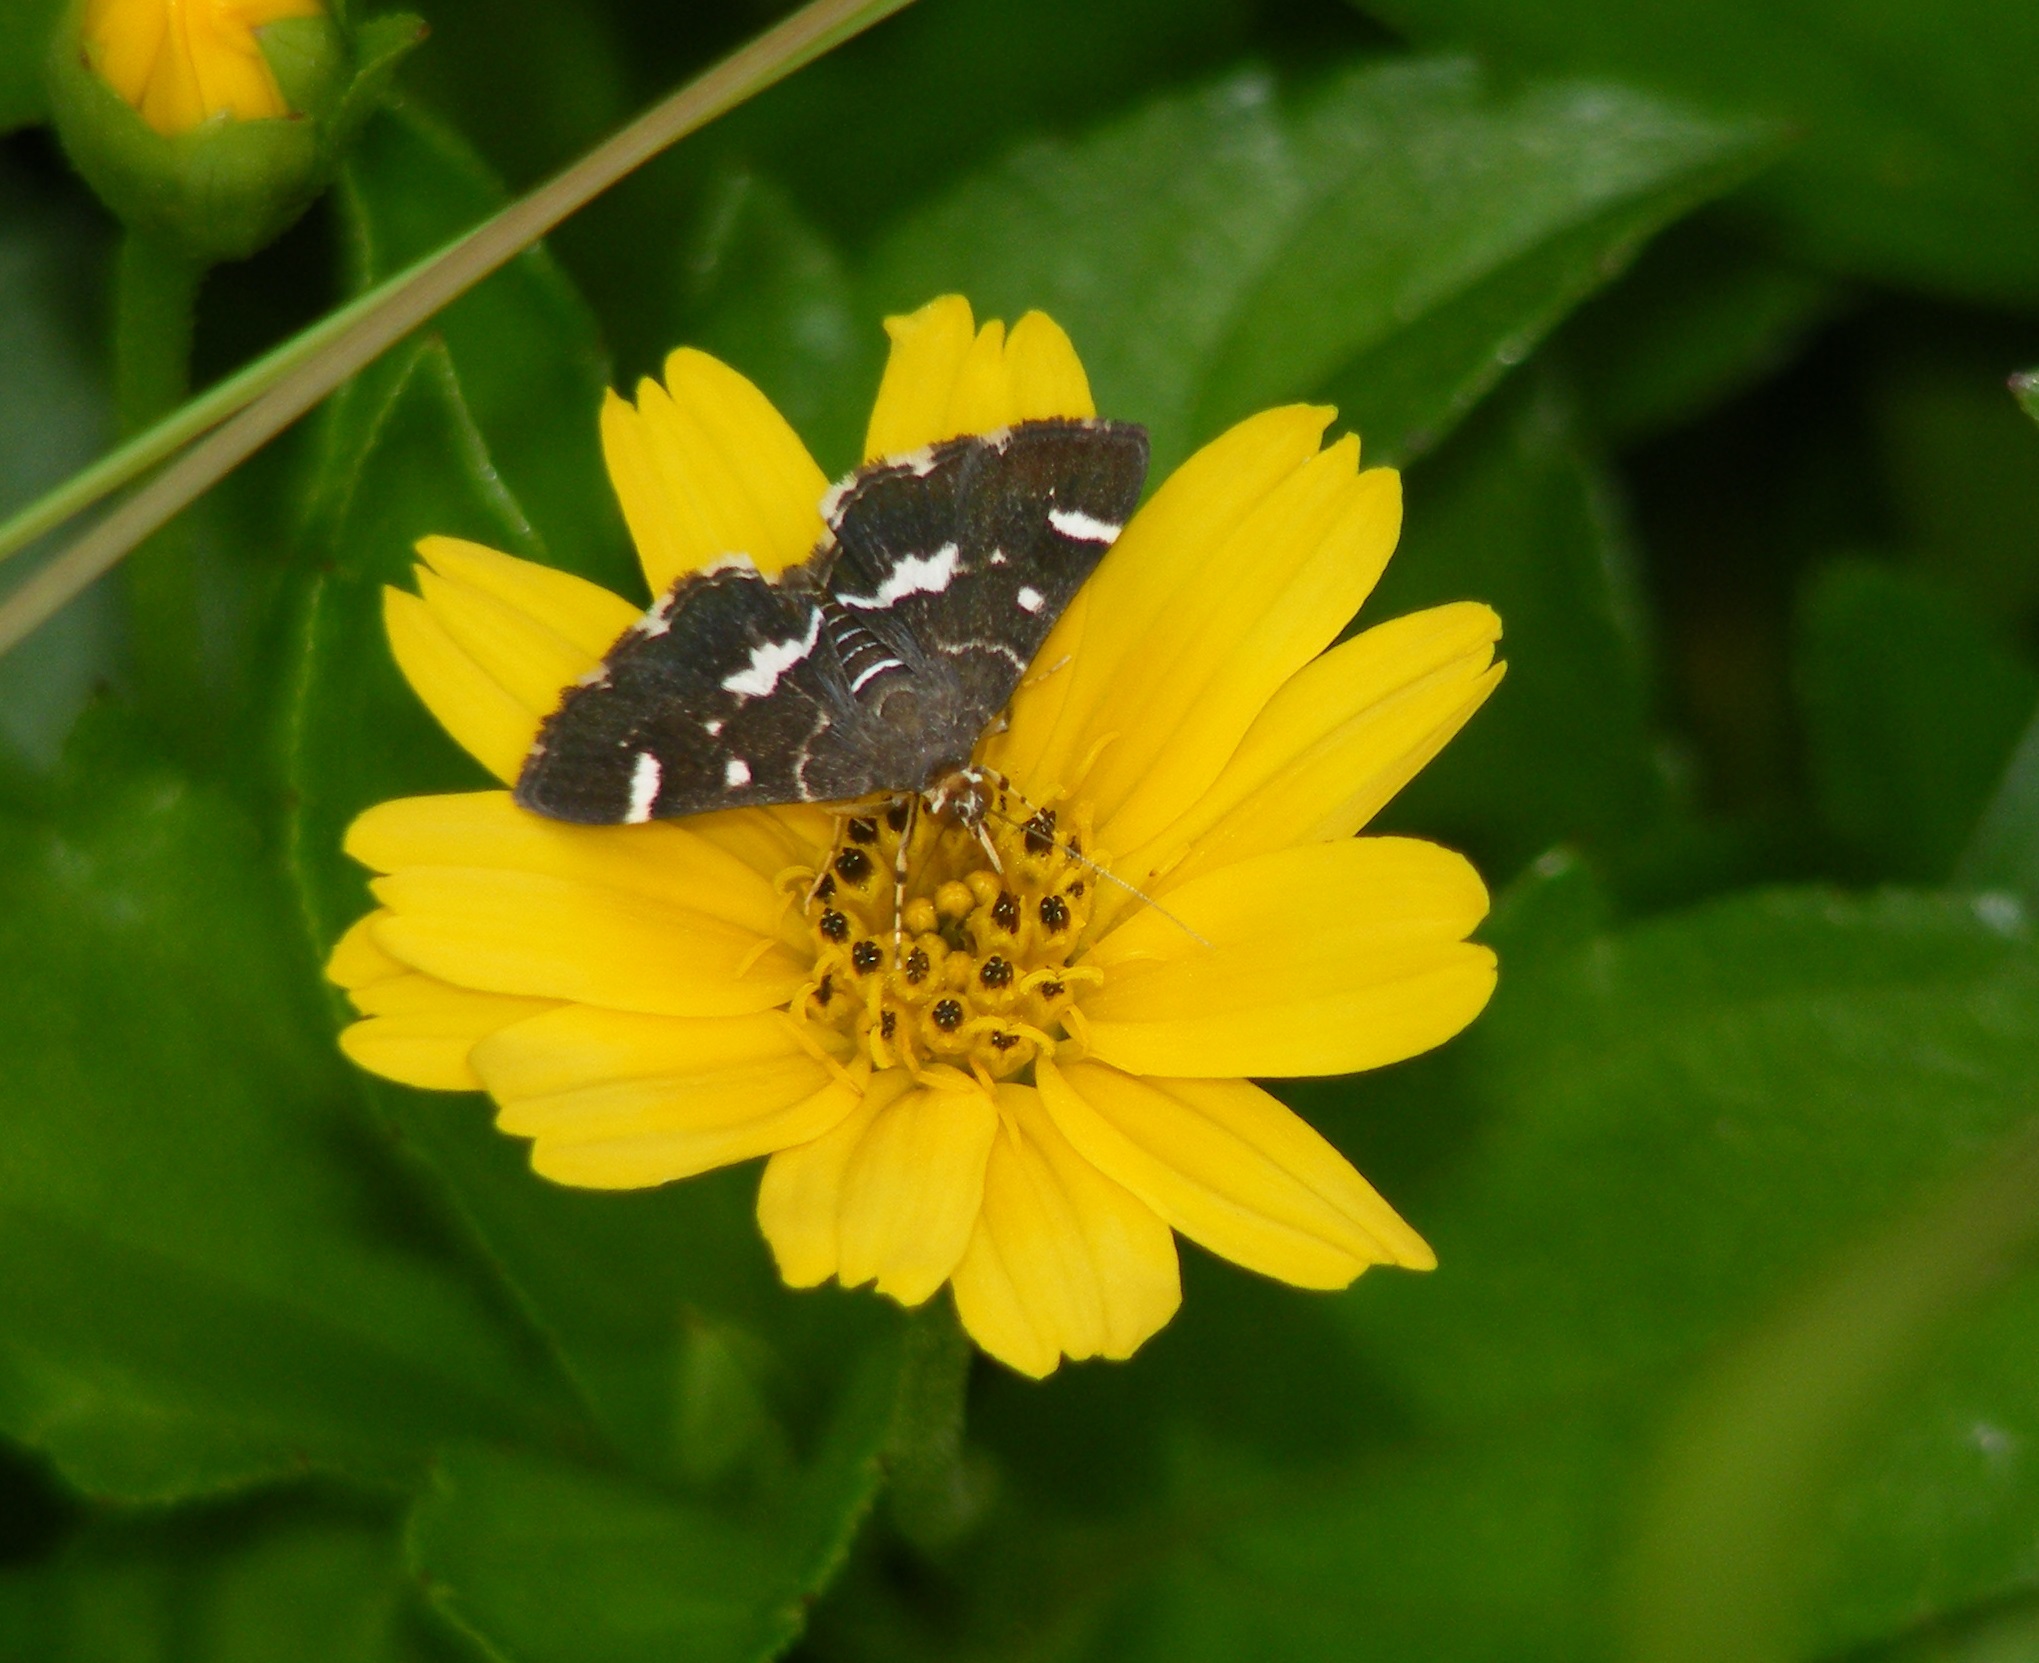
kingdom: Animalia
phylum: Arthropoda
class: Insecta
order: Lepidoptera
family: Crambidae
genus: Hymenia
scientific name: Hymenia perspectalis
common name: Spotted beet webworm
